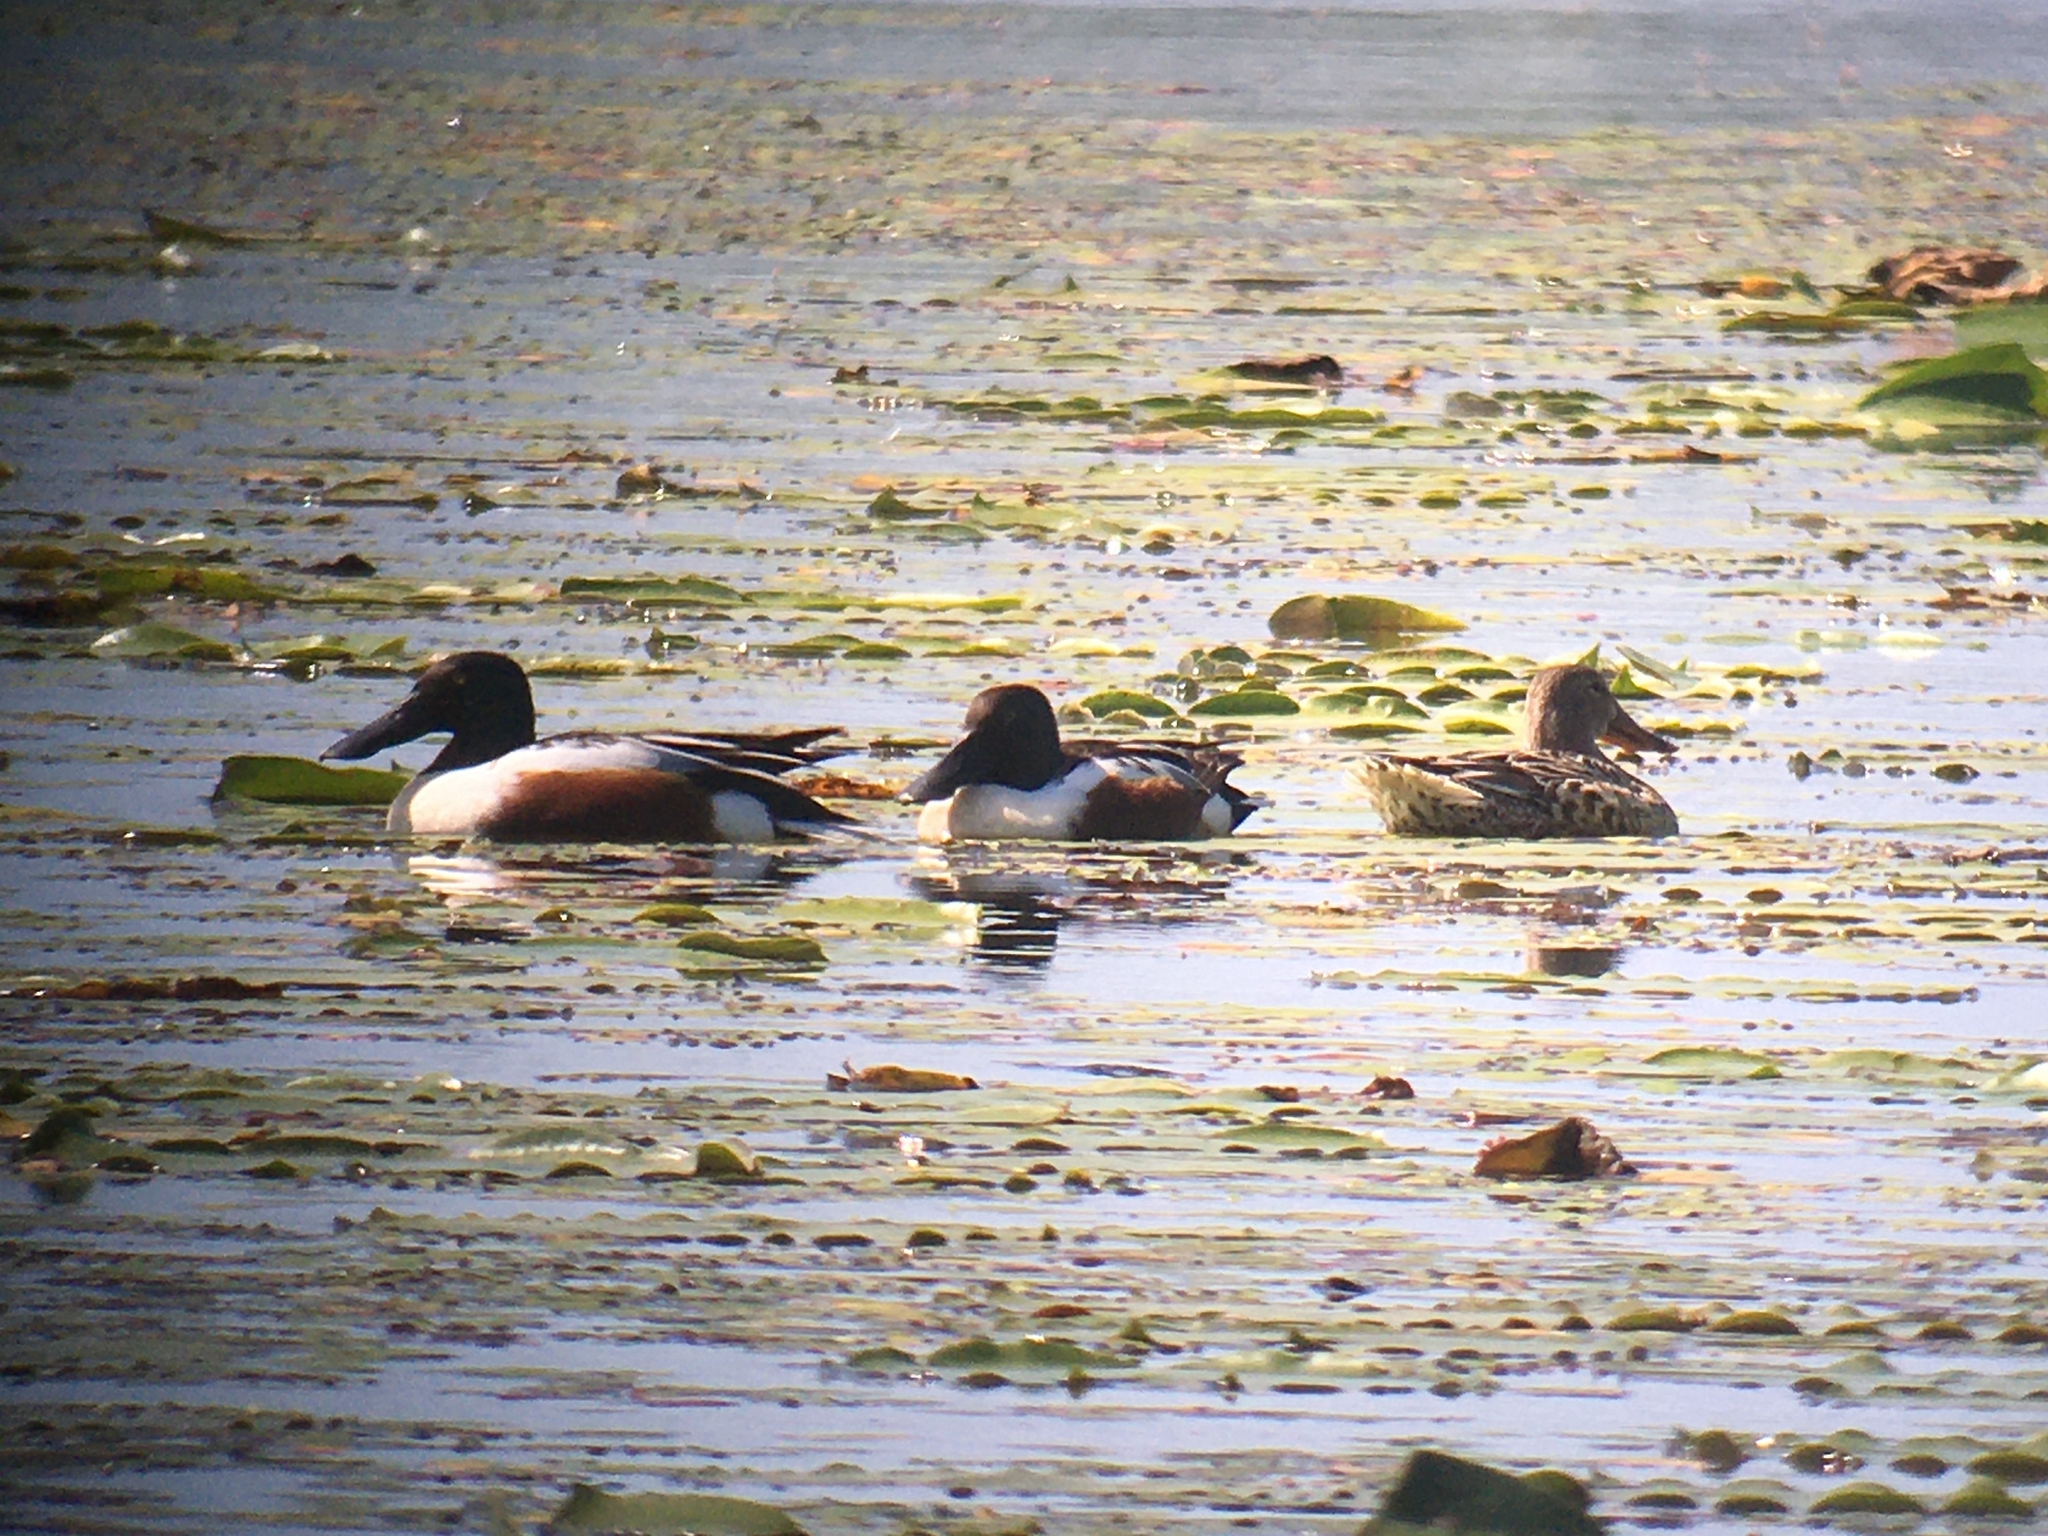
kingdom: Animalia
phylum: Chordata
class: Aves
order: Anseriformes
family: Anatidae
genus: Spatula
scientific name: Spatula clypeata
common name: Northern shoveler
